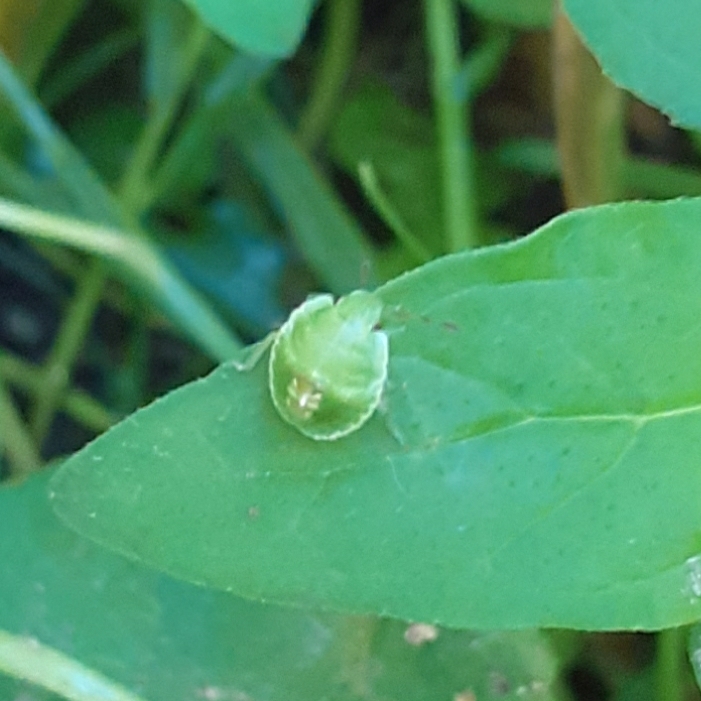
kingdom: Animalia
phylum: Arthropoda
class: Insecta
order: Hemiptera
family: Pentatomidae
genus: Palomena
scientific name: Palomena prasina
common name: Green shieldbug
